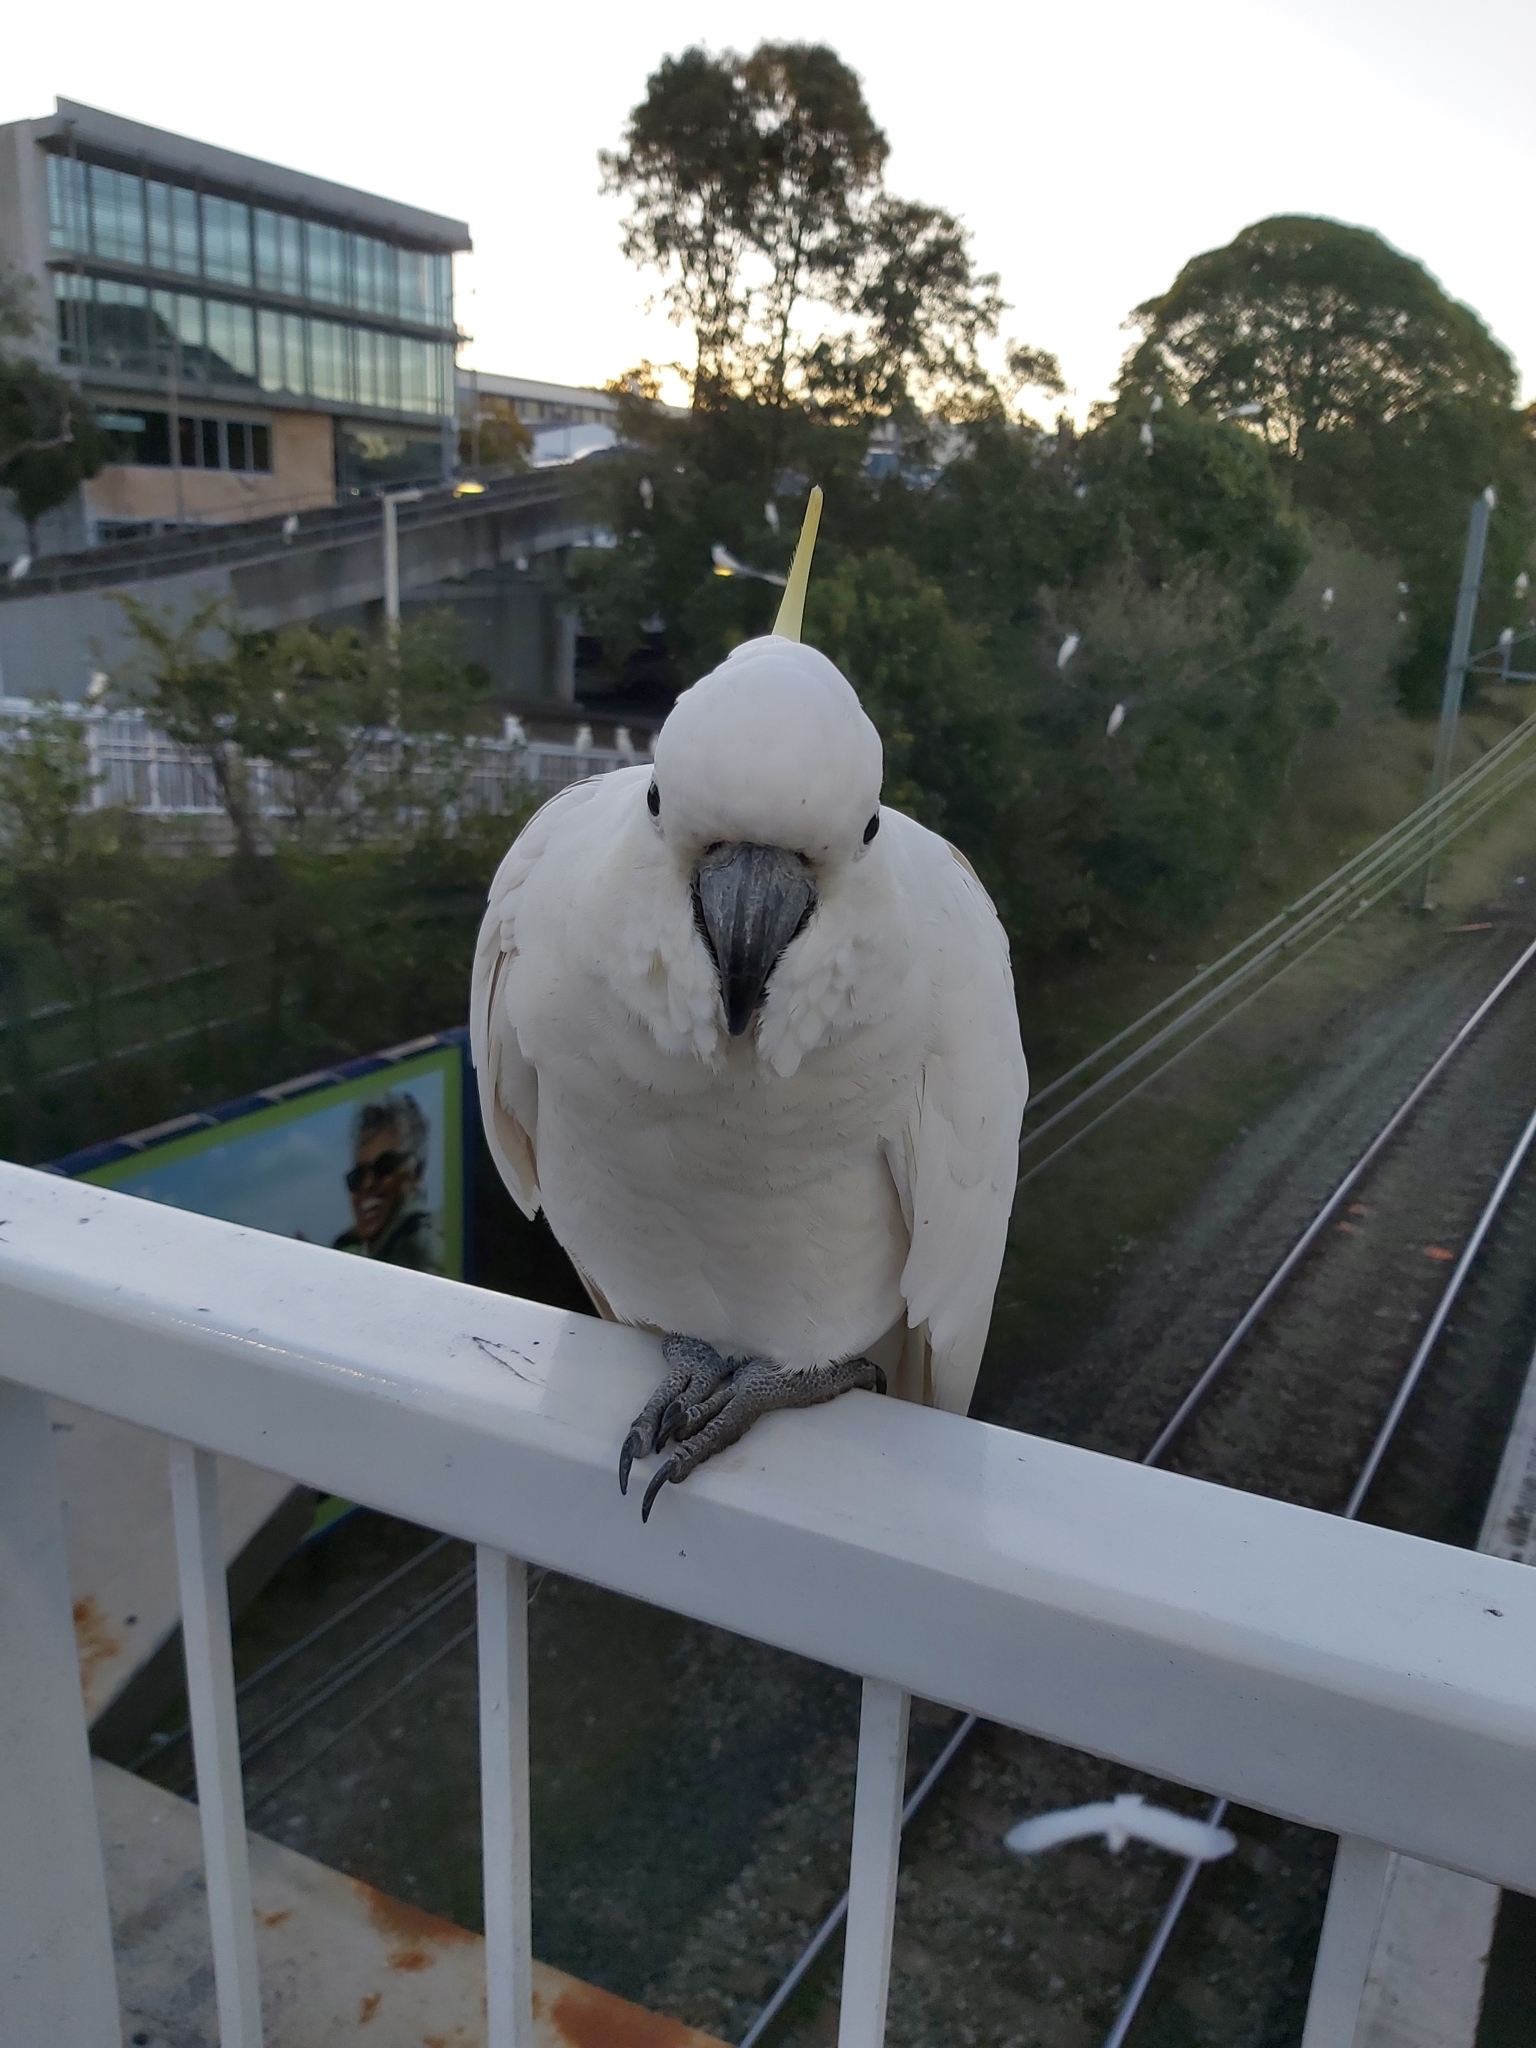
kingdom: Animalia
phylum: Chordata
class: Aves
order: Psittaciformes
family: Psittacidae
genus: Cacatua
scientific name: Cacatua galerita
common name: Sulphur-crested cockatoo
